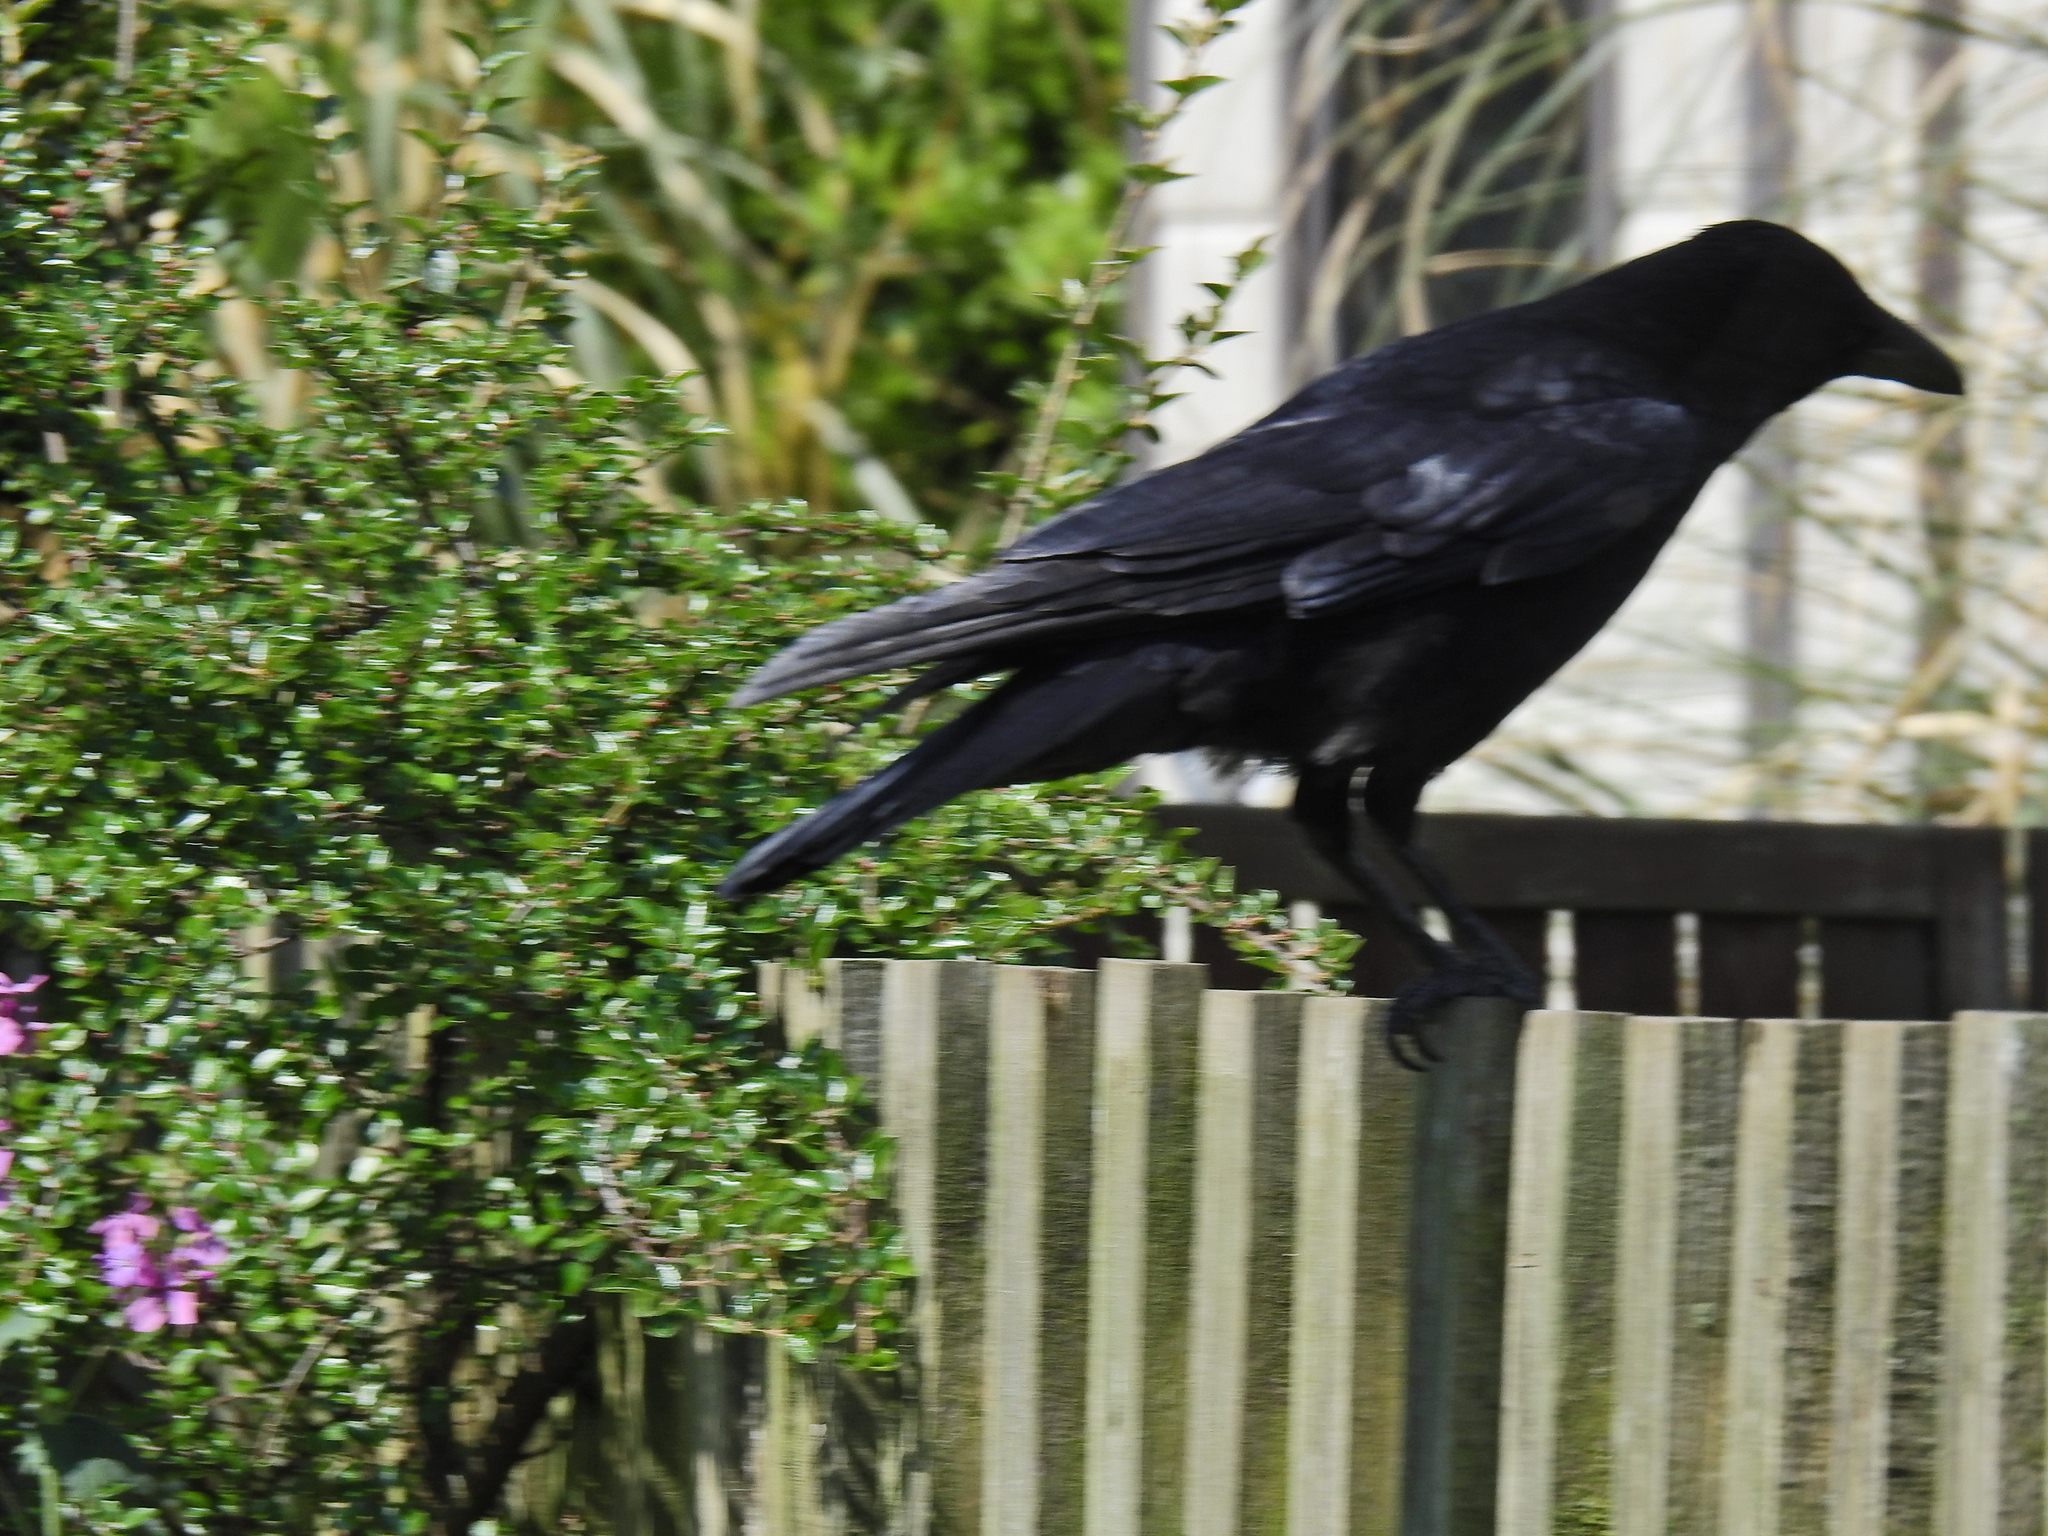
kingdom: Animalia
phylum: Chordata
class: Aves
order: Passeriformes
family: Corvidae
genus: Corvus
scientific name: Corvus corone
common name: Carrion crow
